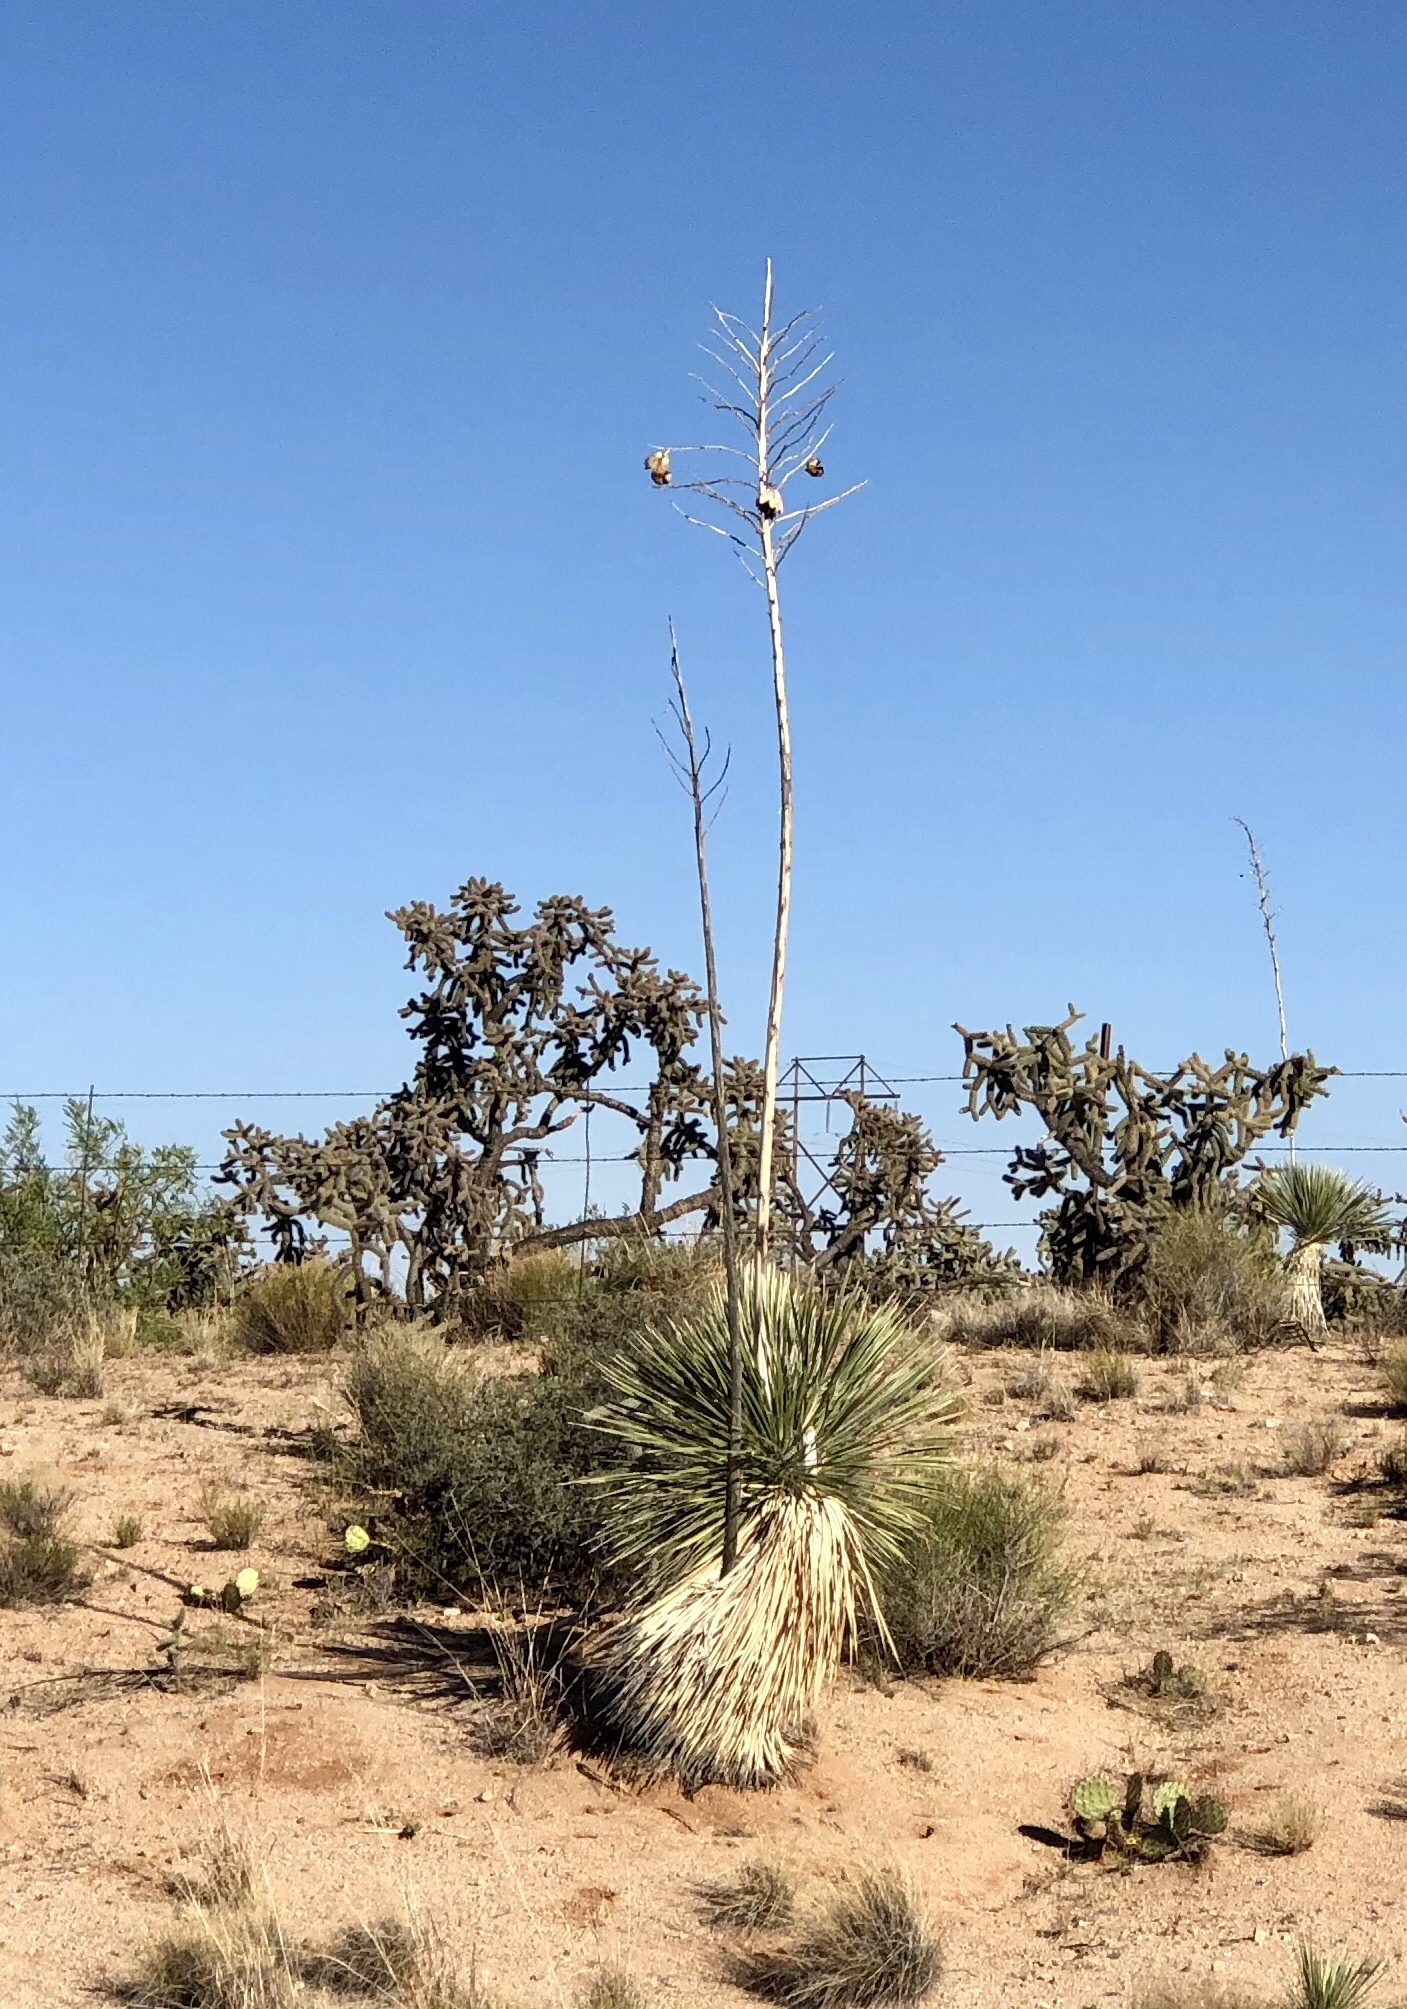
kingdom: Plantae
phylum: Tracheophyta
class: Liliopsida
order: Asparagales
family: Asparagaceae
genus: Yucca
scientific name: Yucca elata
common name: Palmella
